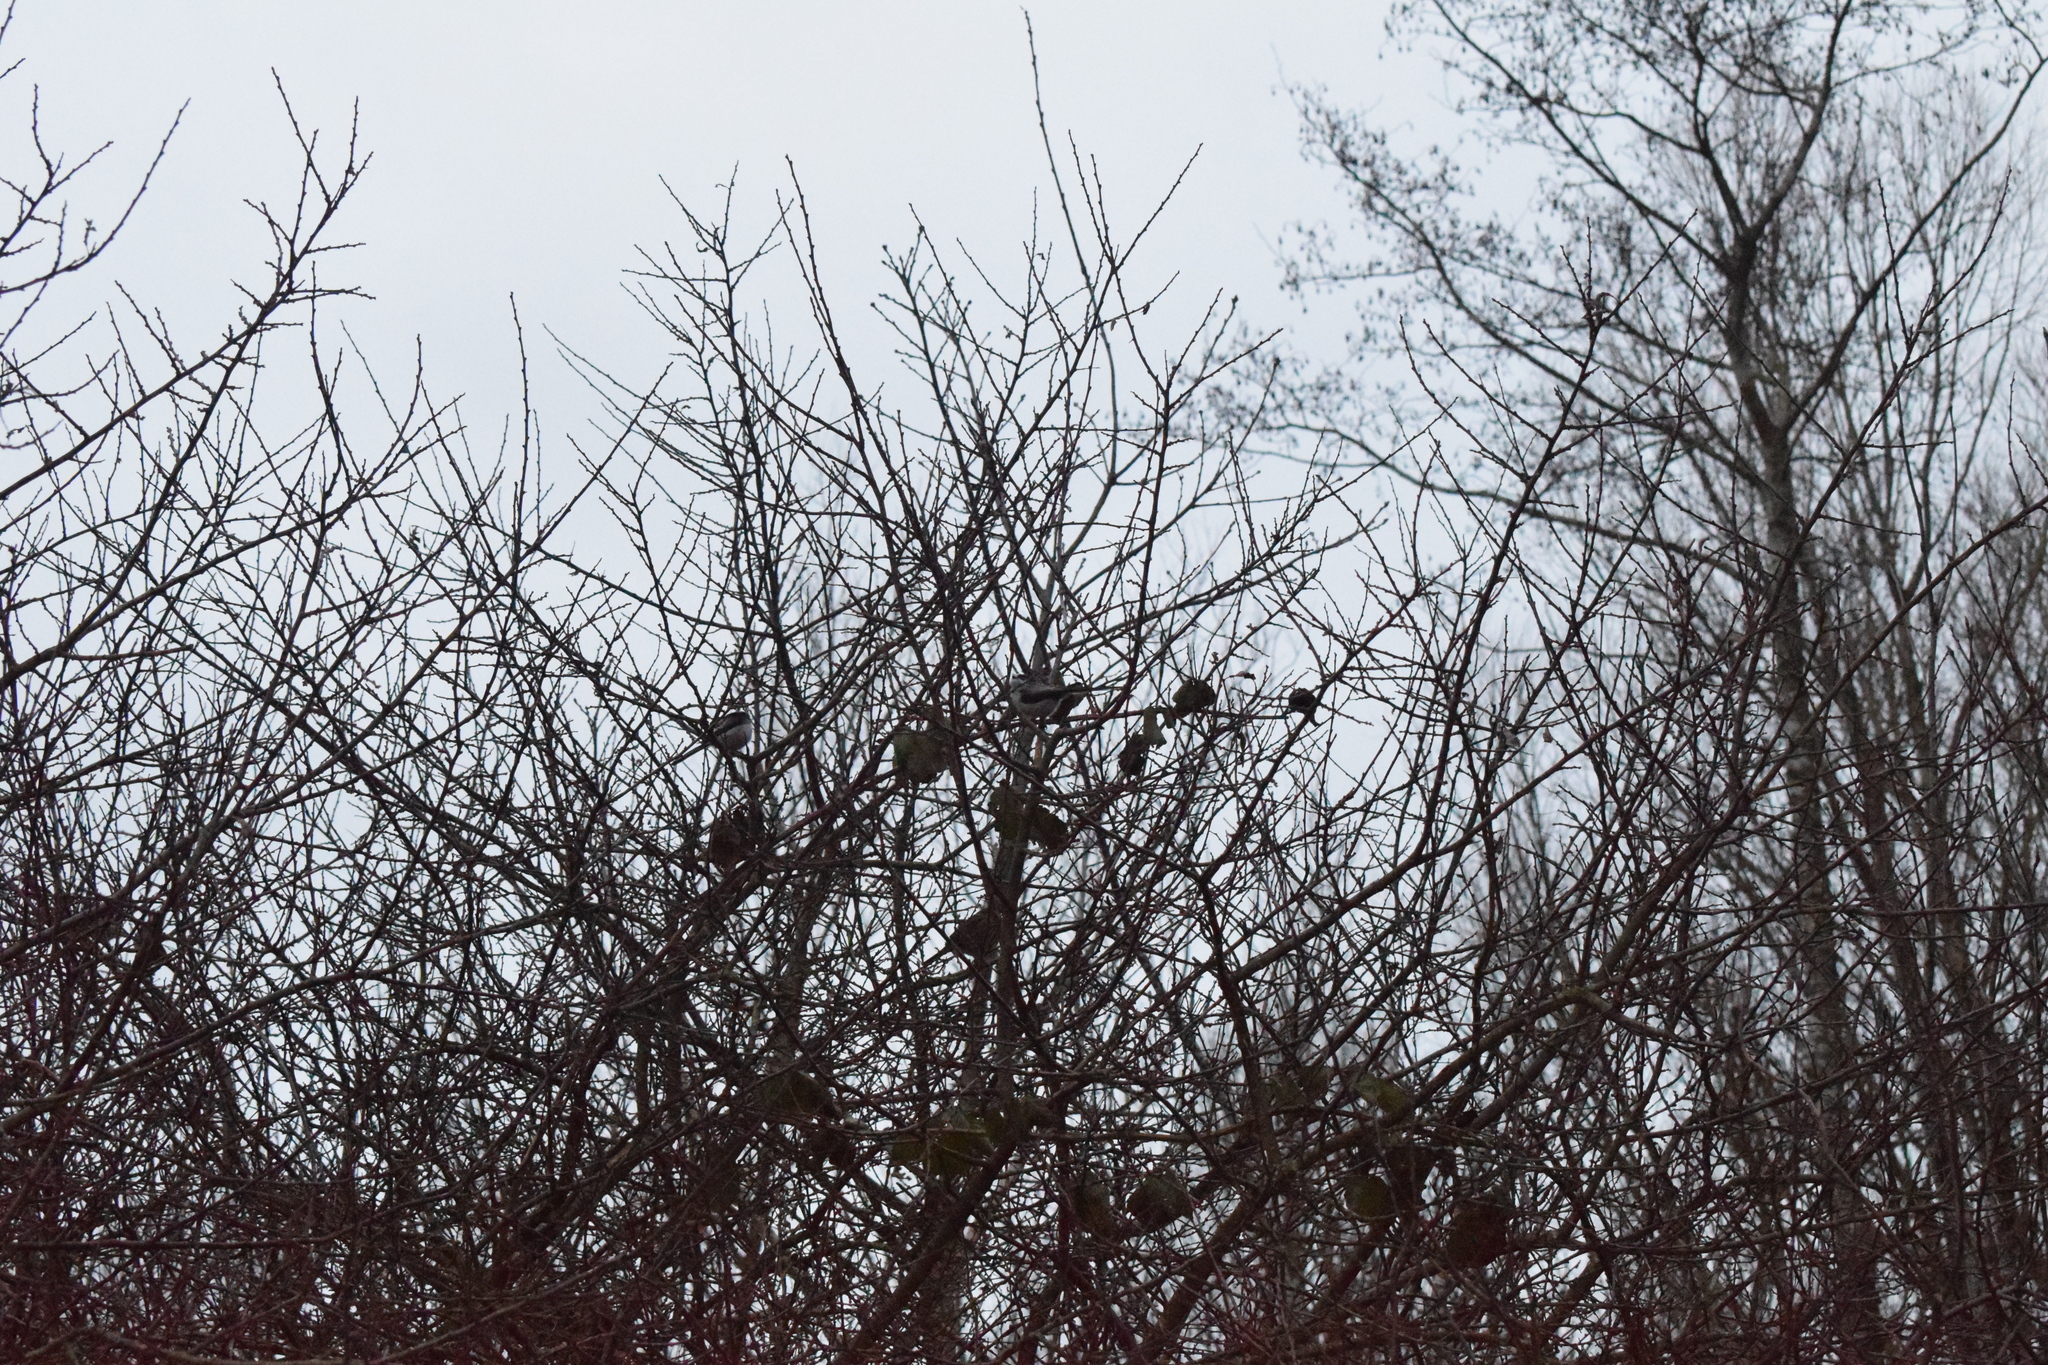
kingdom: Animalia
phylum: Chordata
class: Aves
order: Passeriformes
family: Aegithalidae
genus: Aegithalos
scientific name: Aegithalos caudatus
